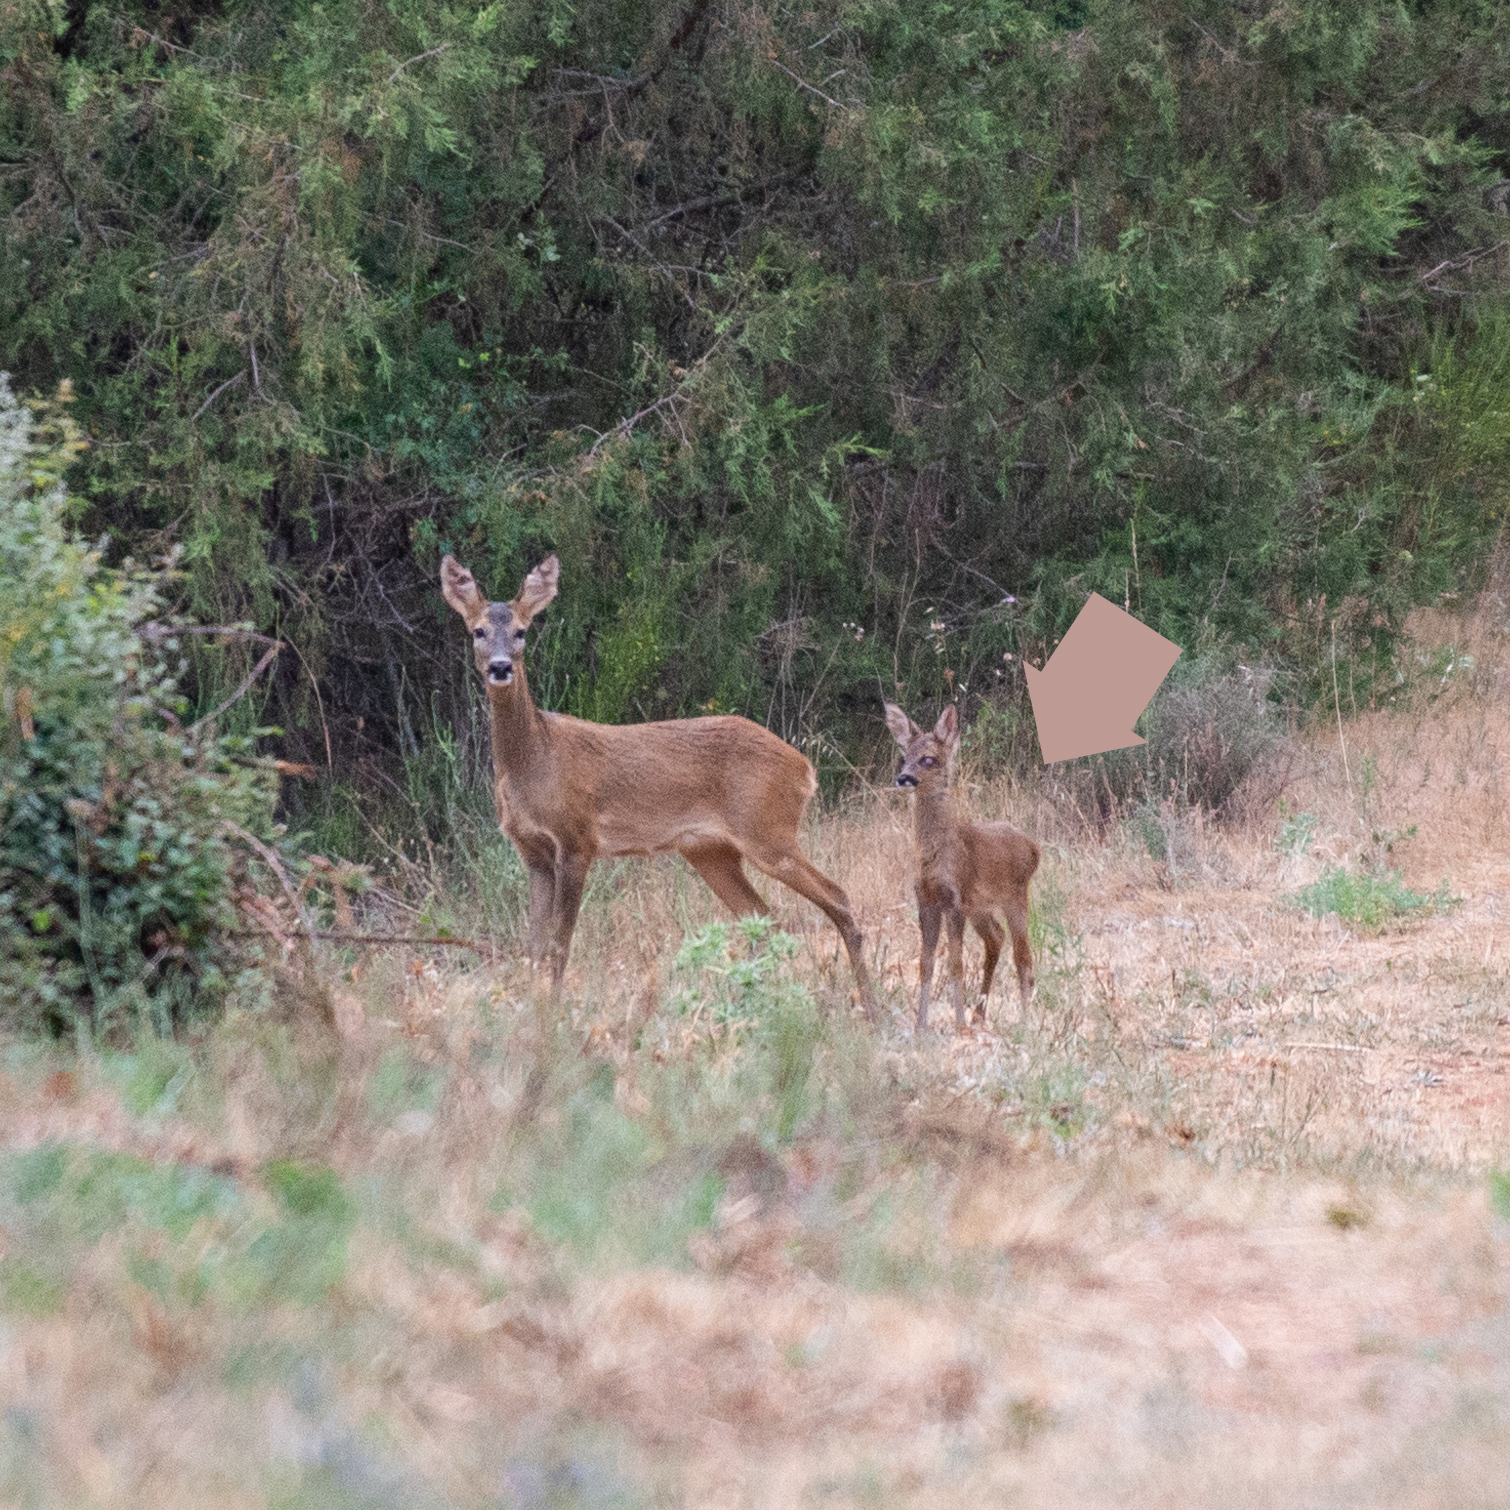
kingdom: Animalia
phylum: Chordata
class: Mammalia
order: Artiodactyla
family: Cervidae
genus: Capreolus
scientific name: Capreolus capreolus
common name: Western roe deer
